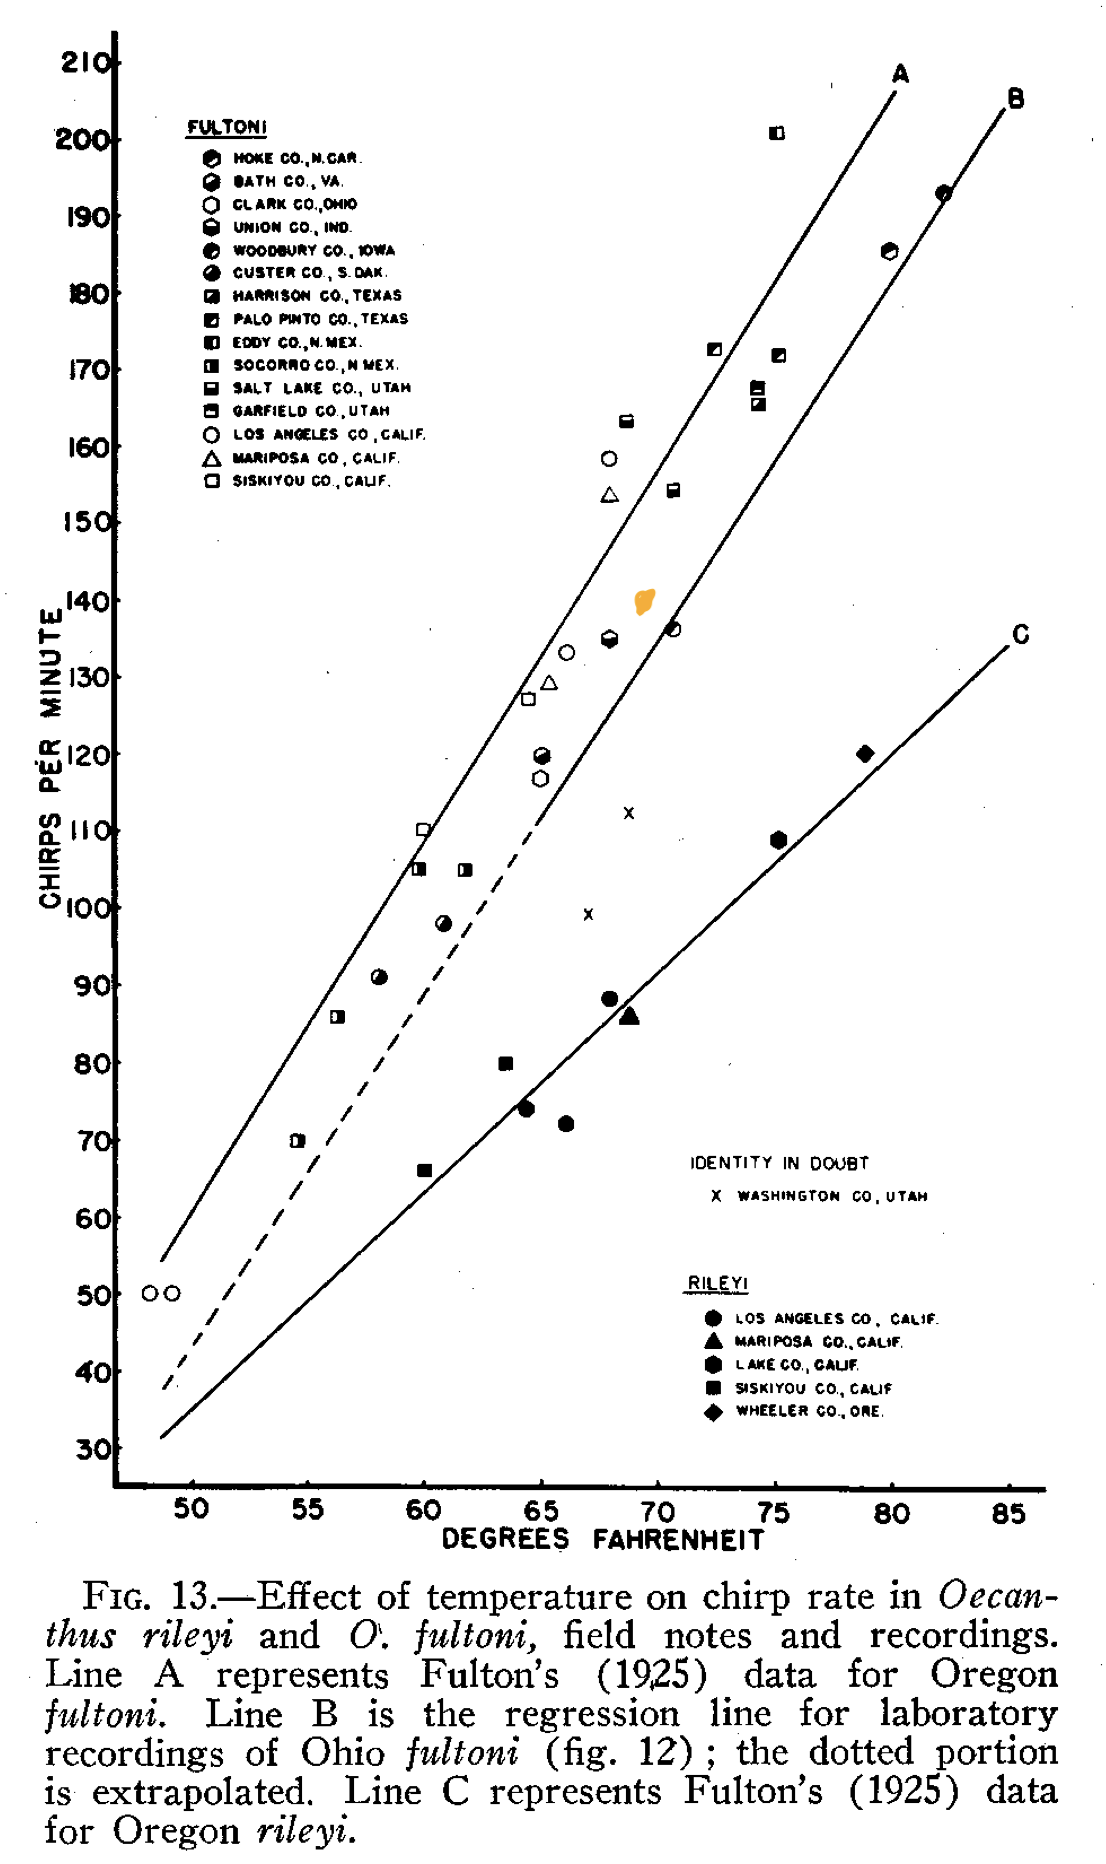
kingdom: Animalia
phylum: Arthropoda
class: Insecta
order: Orthoptera
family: Gryllidae
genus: Oecanthus
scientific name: Oecanthus fultoni
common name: Snowy tree cricket
